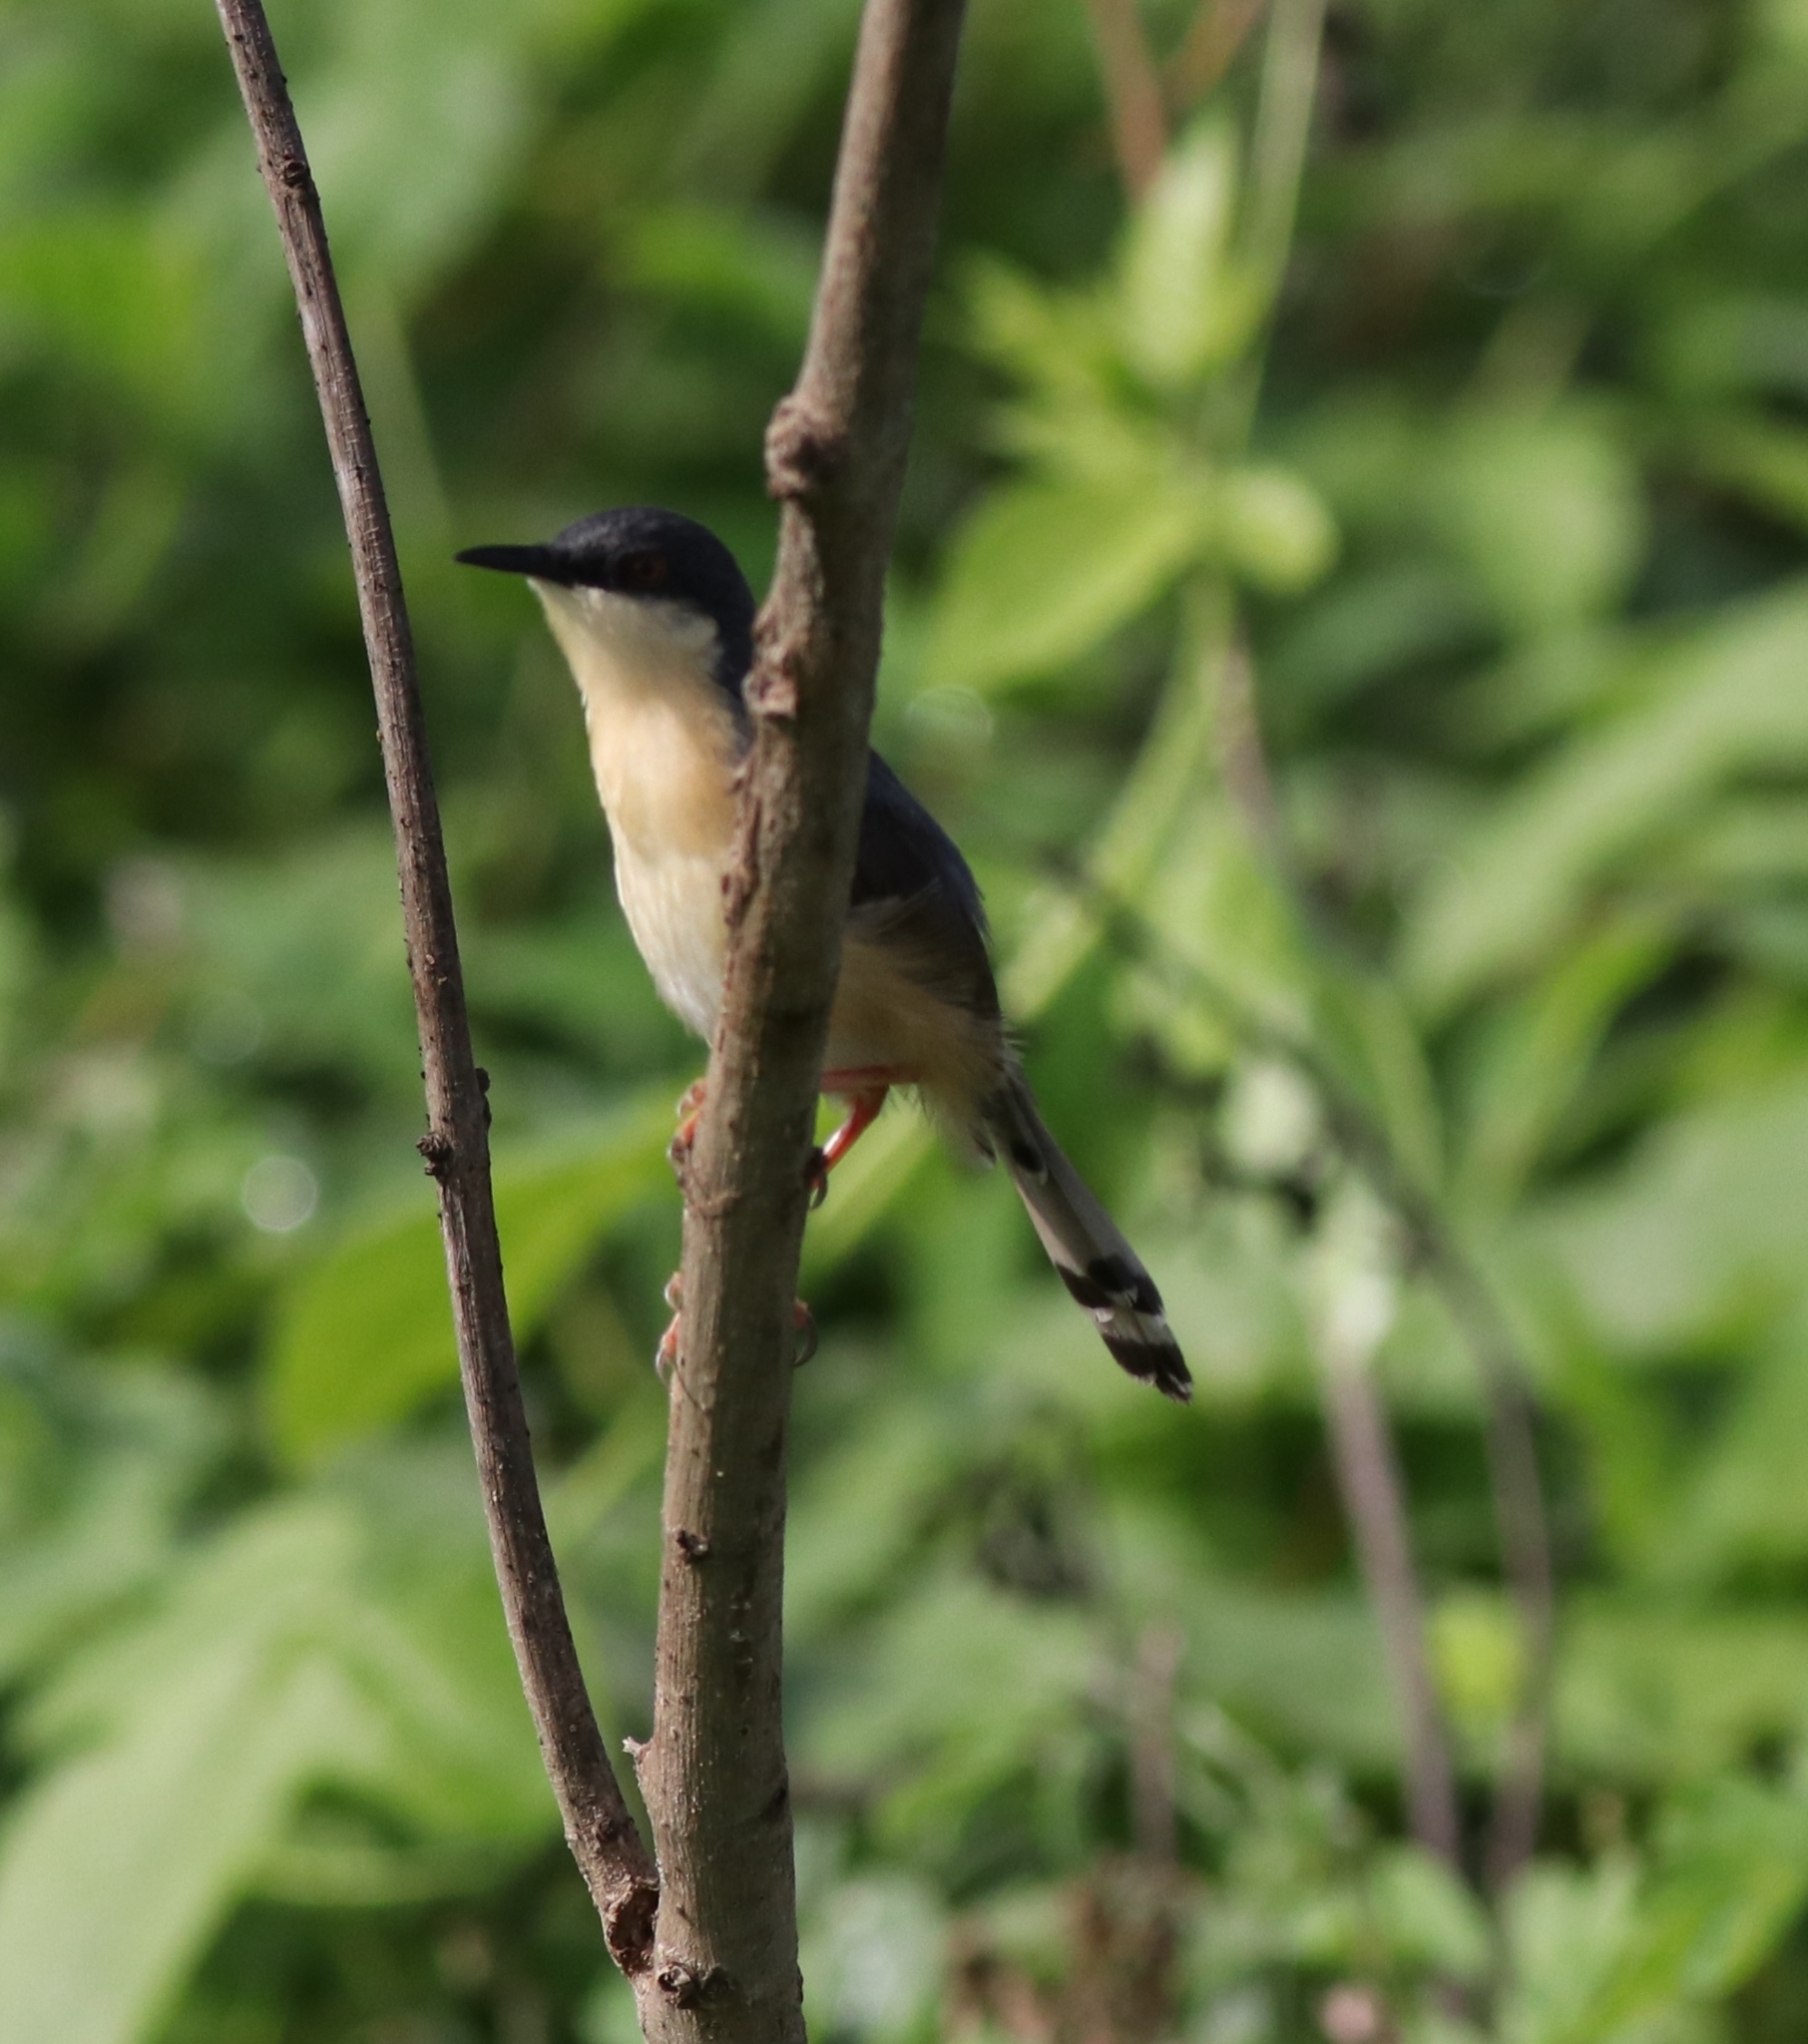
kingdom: Animalia
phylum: Chordata
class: Aves
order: Passeriformes
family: Cisticolidae
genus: Prinia
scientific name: Prinia socialis
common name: Ashy prinia
